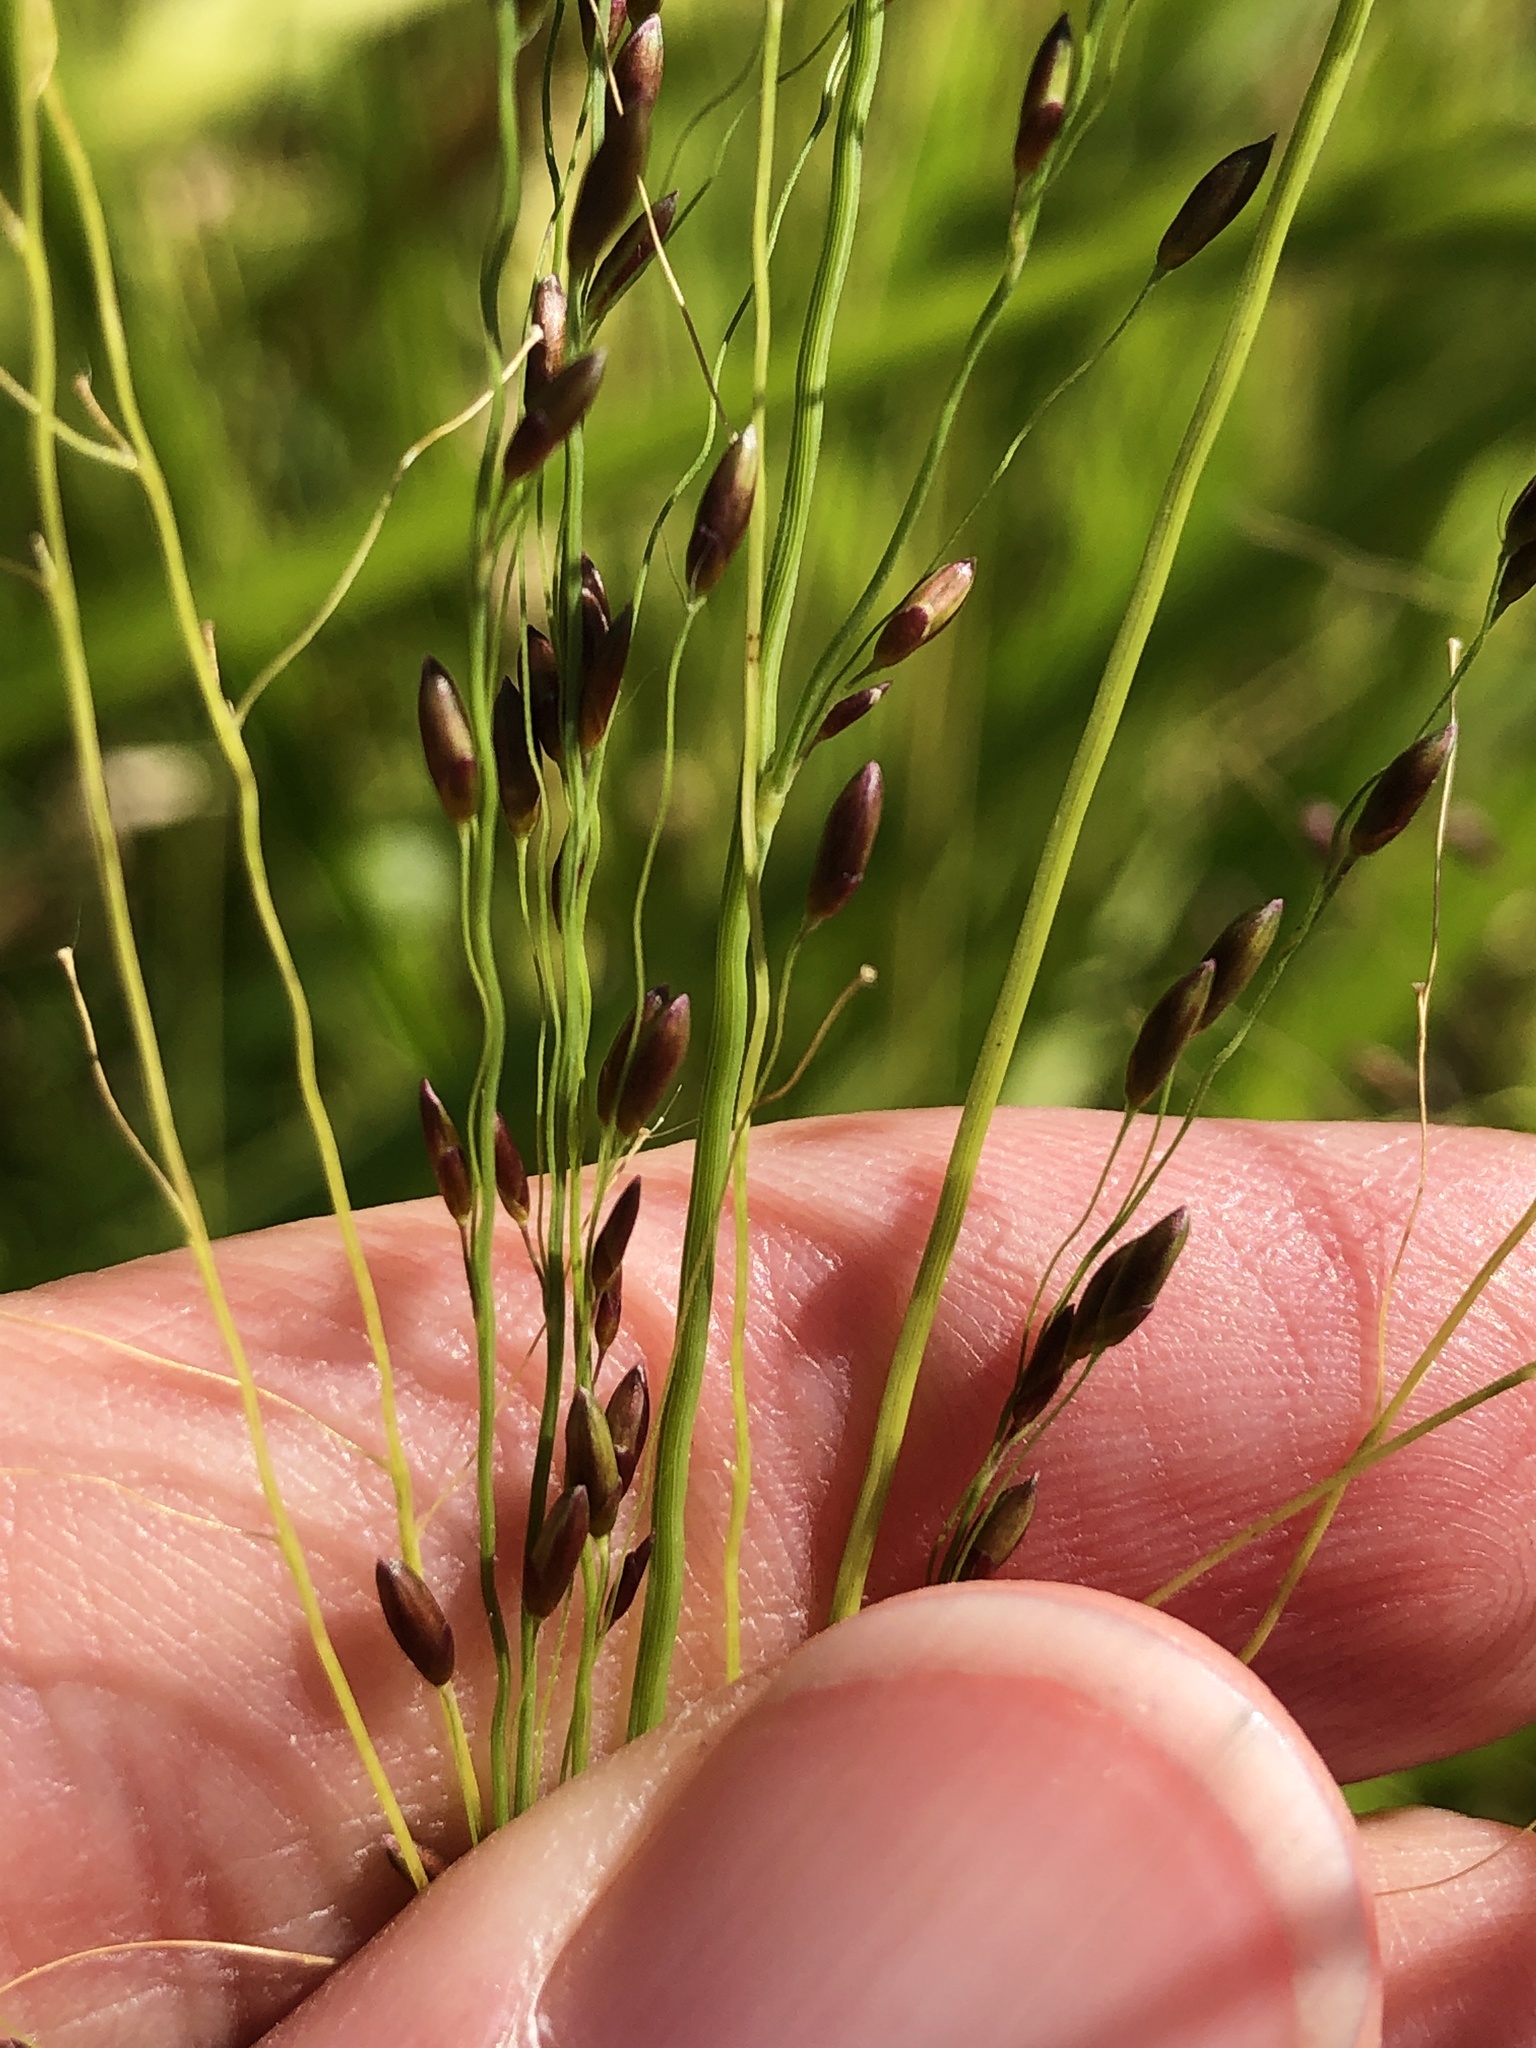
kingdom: Plantae
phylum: Tracheophyta
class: Liliopsida
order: Poales
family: Poaceae
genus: Megathyrsus
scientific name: Megathyrsus maximus
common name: Guineagrass
